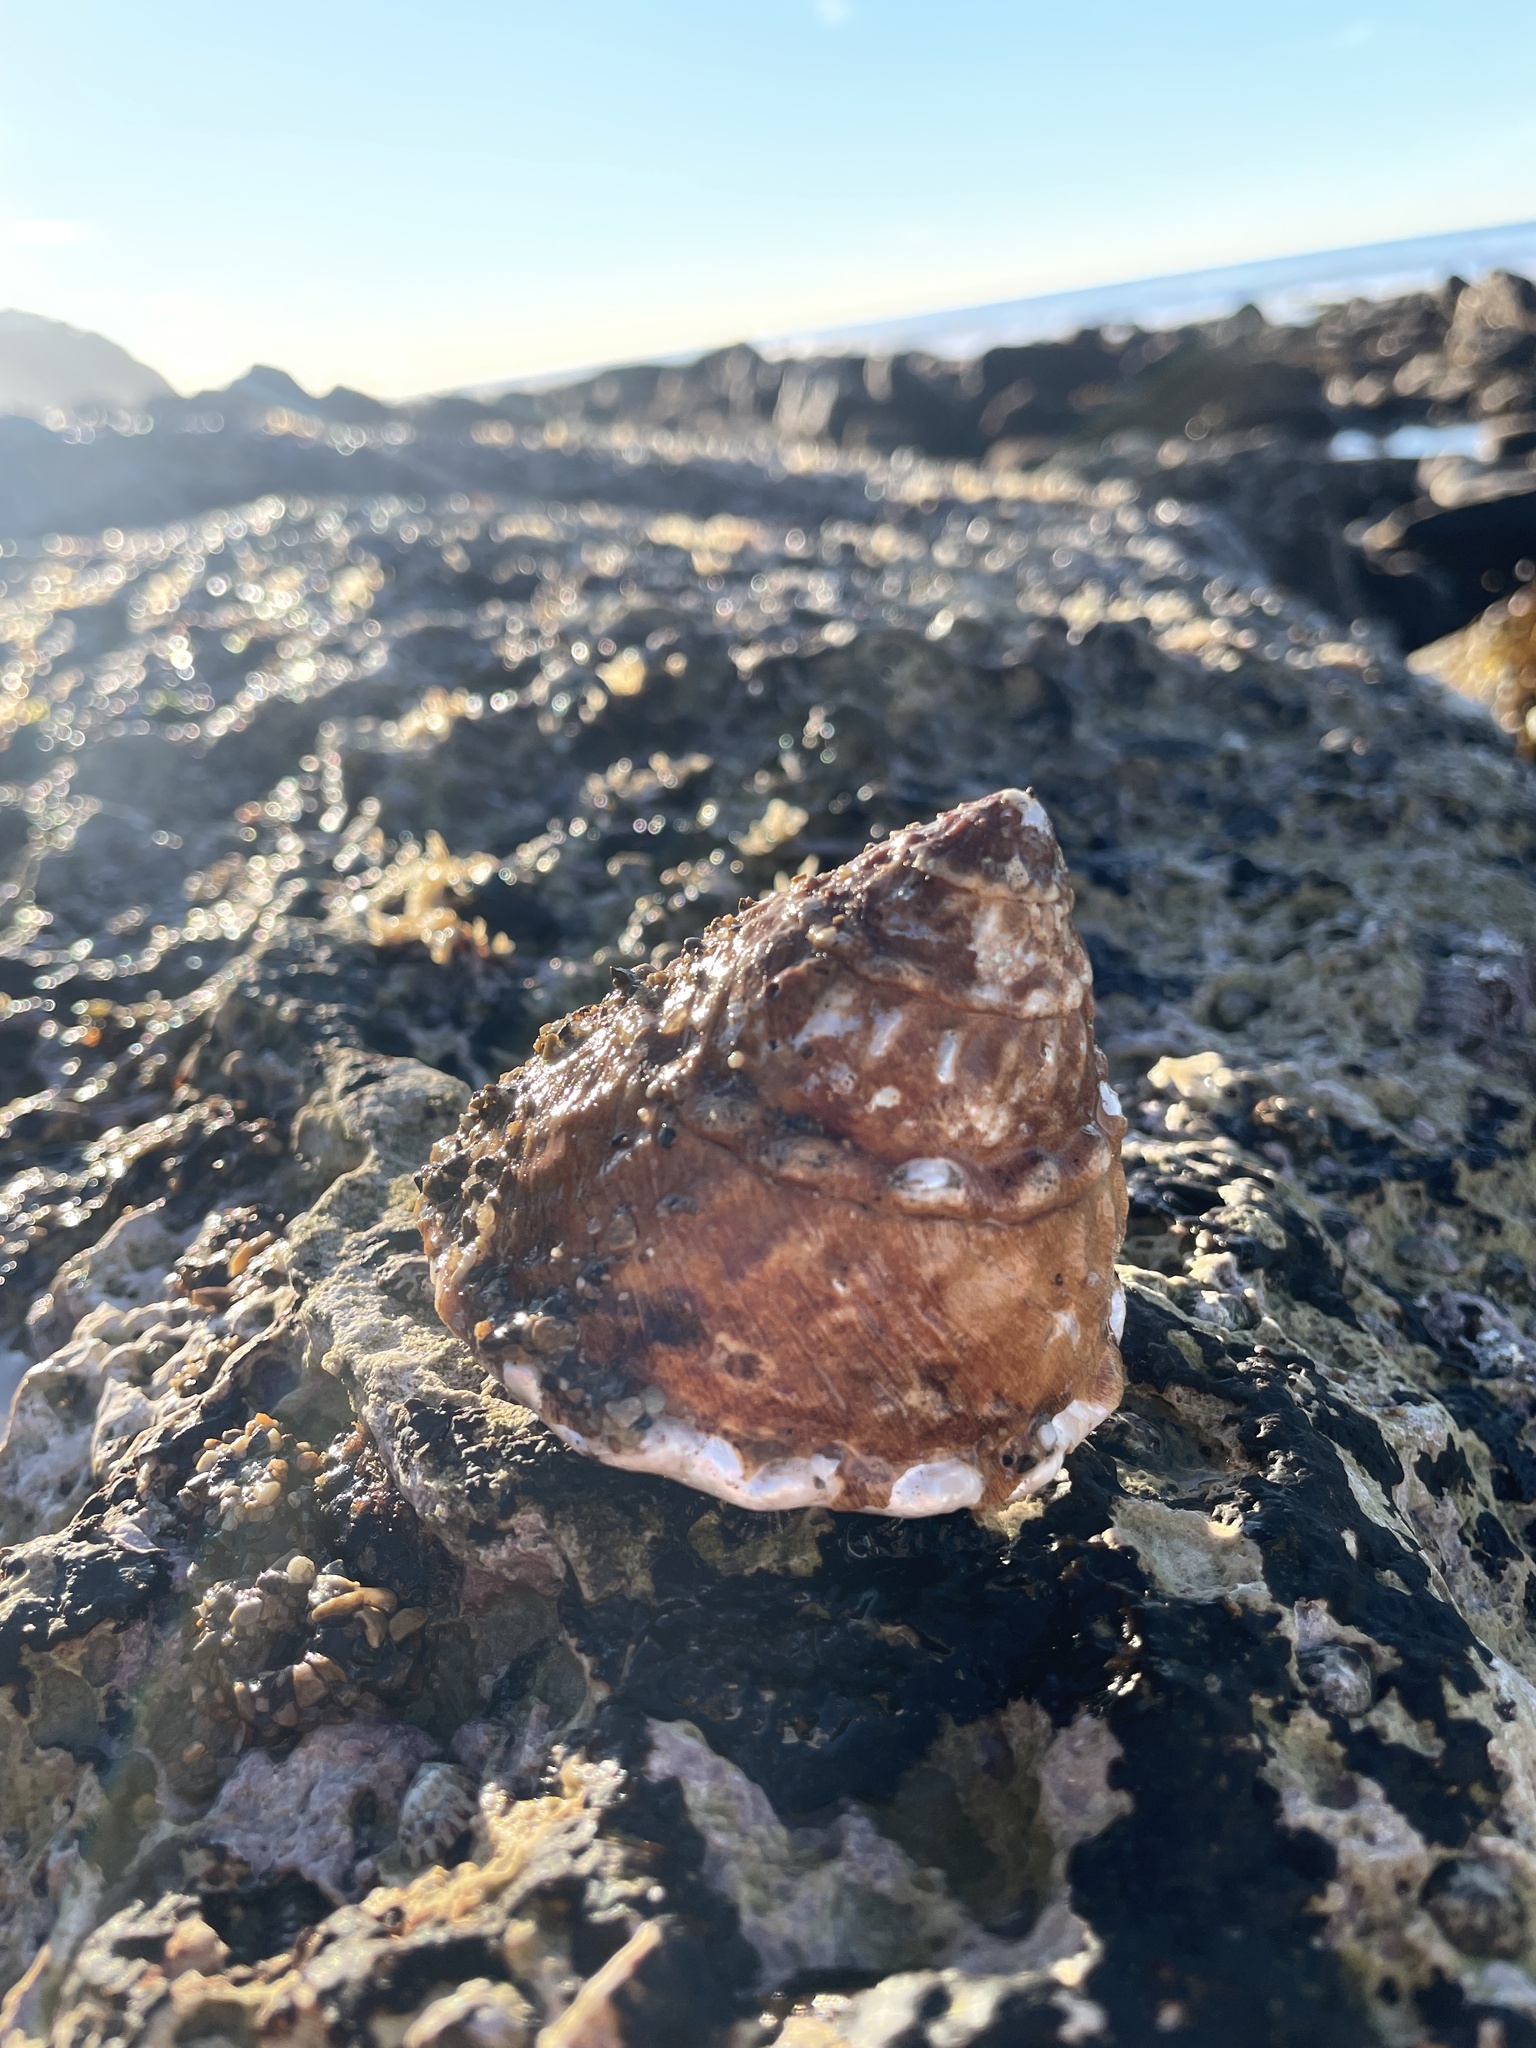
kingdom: Animalia
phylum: Mollusca
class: Gastropoda
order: Trochida
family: Turbinidae
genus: Megastraea
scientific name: Megastraea undosa
